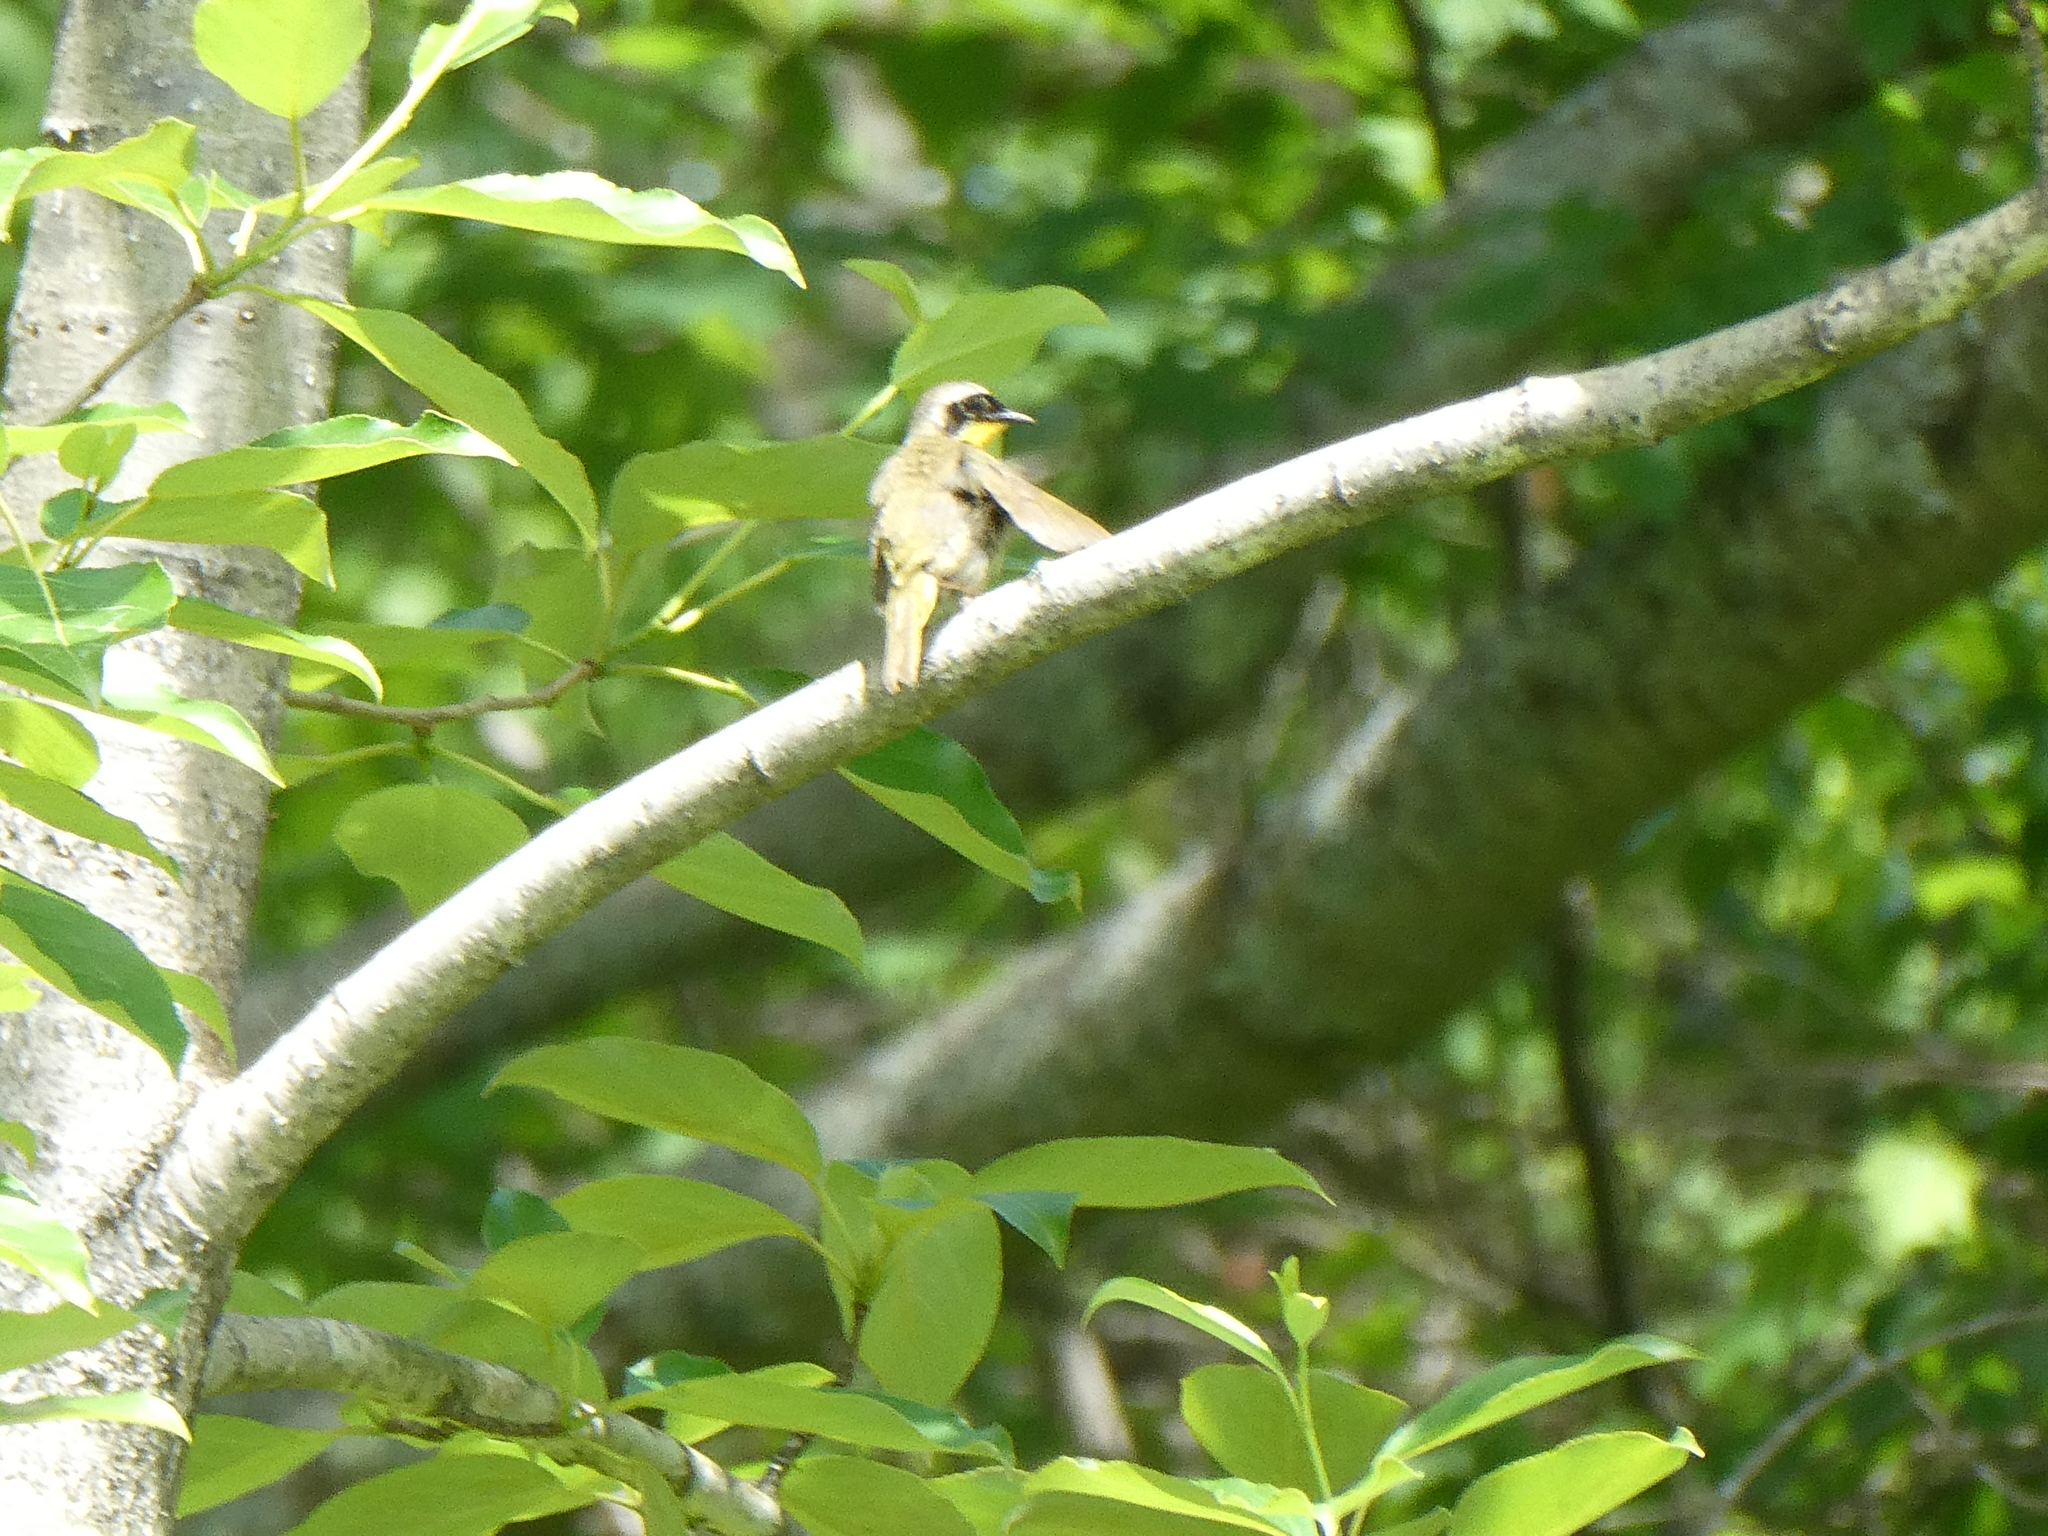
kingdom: Animalia
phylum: Chordata
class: Aves
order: Passeriformes
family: Parulidae
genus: Geothlypis
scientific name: Geothlypis trichas
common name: Common yellowthroat
